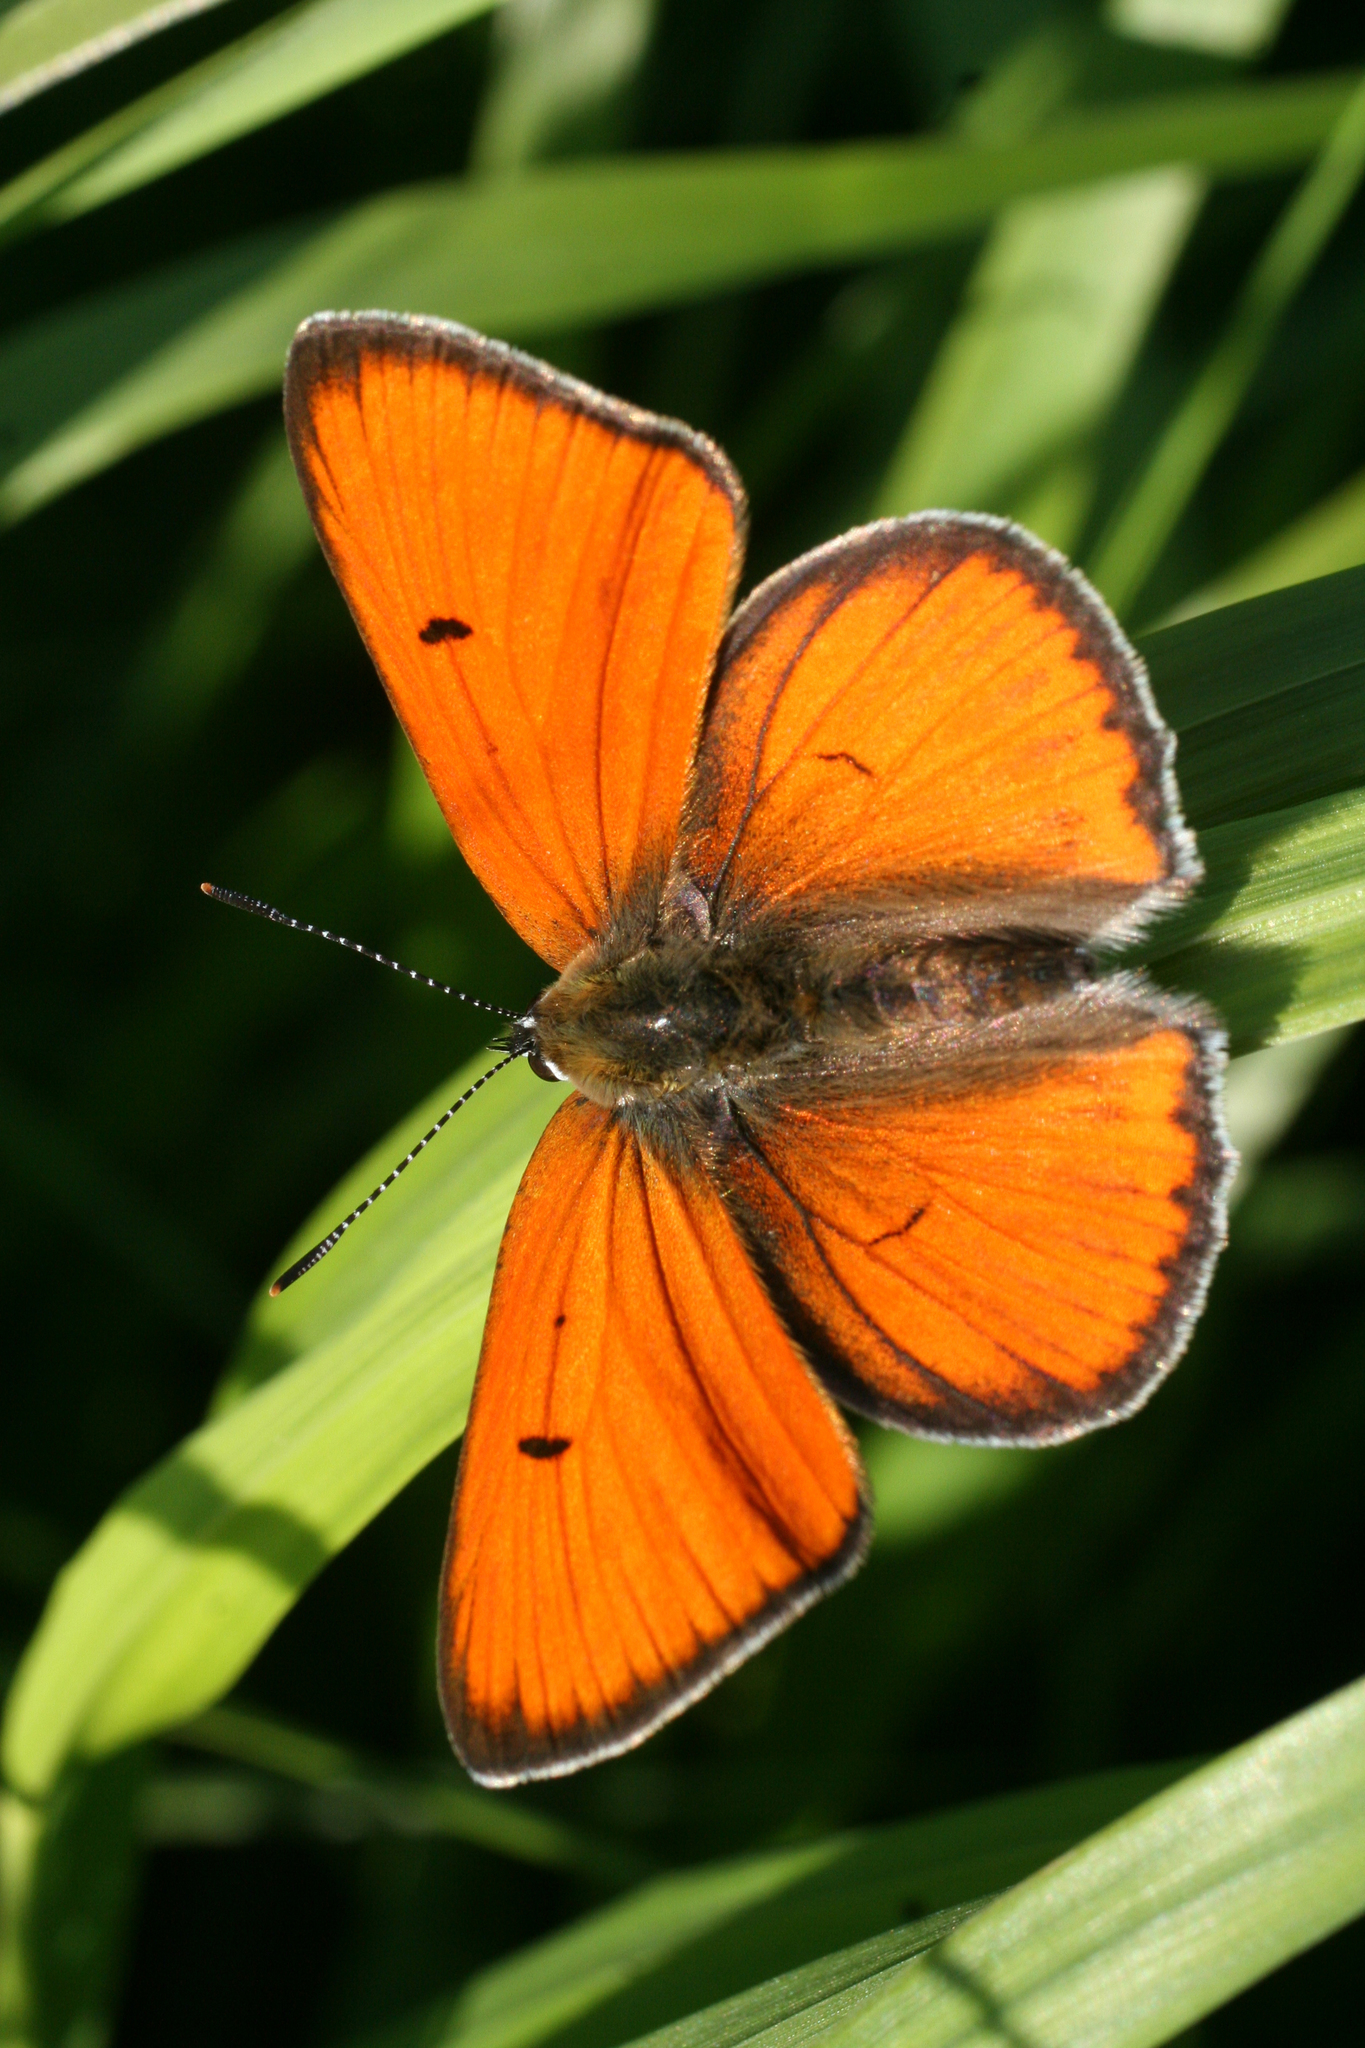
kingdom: Animalia
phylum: Arthropoda
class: Insecta
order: Lepidoptera
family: Lycaenidae
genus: Lycaena
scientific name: Lycaena dispar
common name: Large copper
